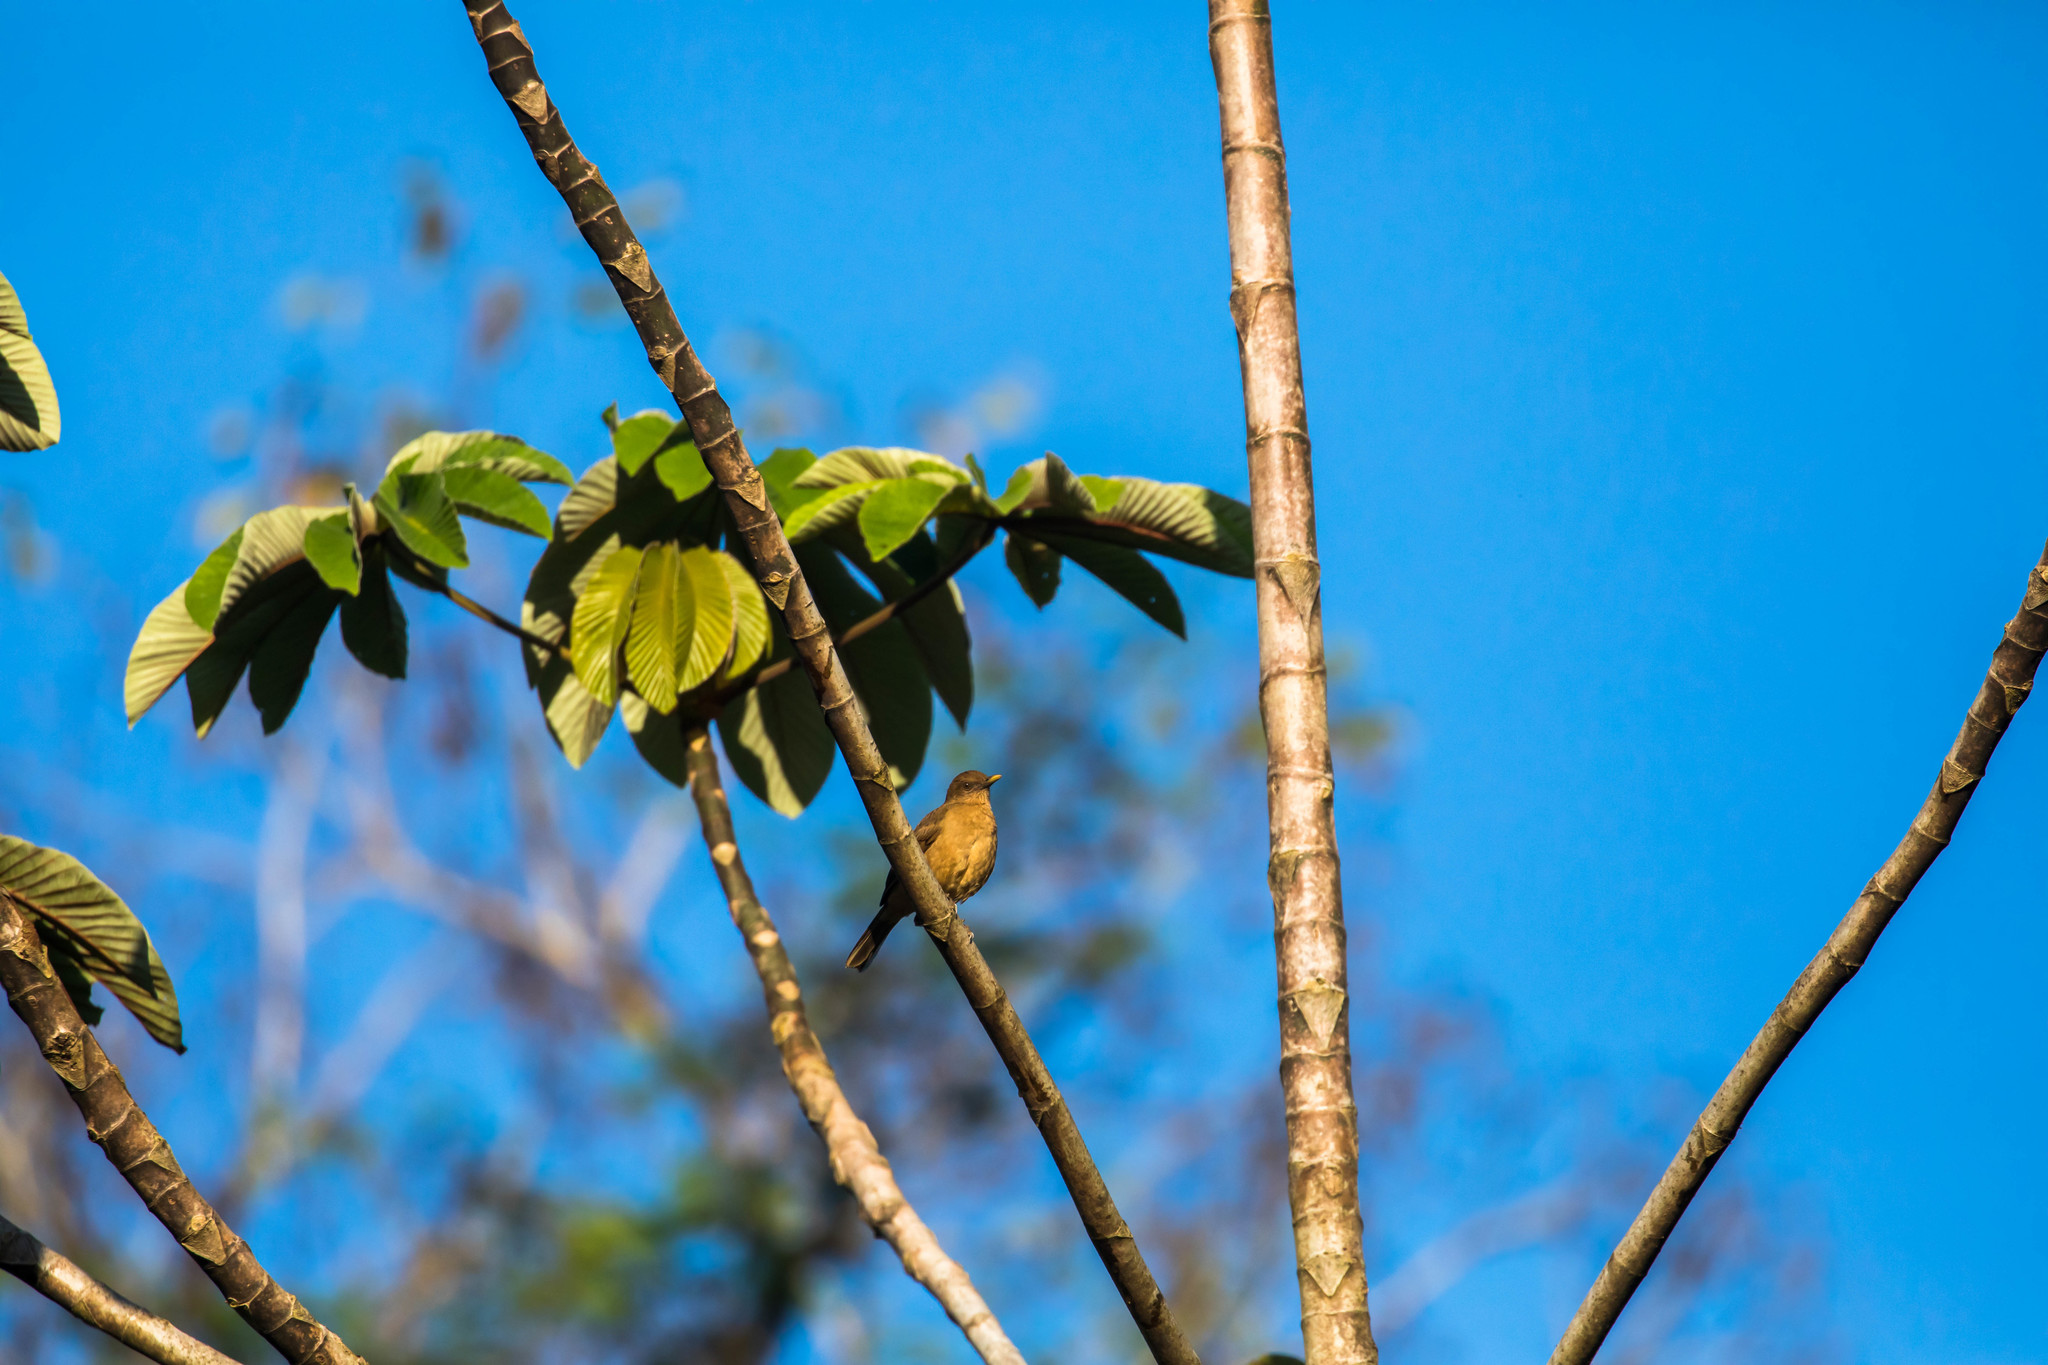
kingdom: Animalia
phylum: Chordata
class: Aves
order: Passeriformes
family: Turdidae
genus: Turdus
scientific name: Turdus grayi
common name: Clay-colored thrush
